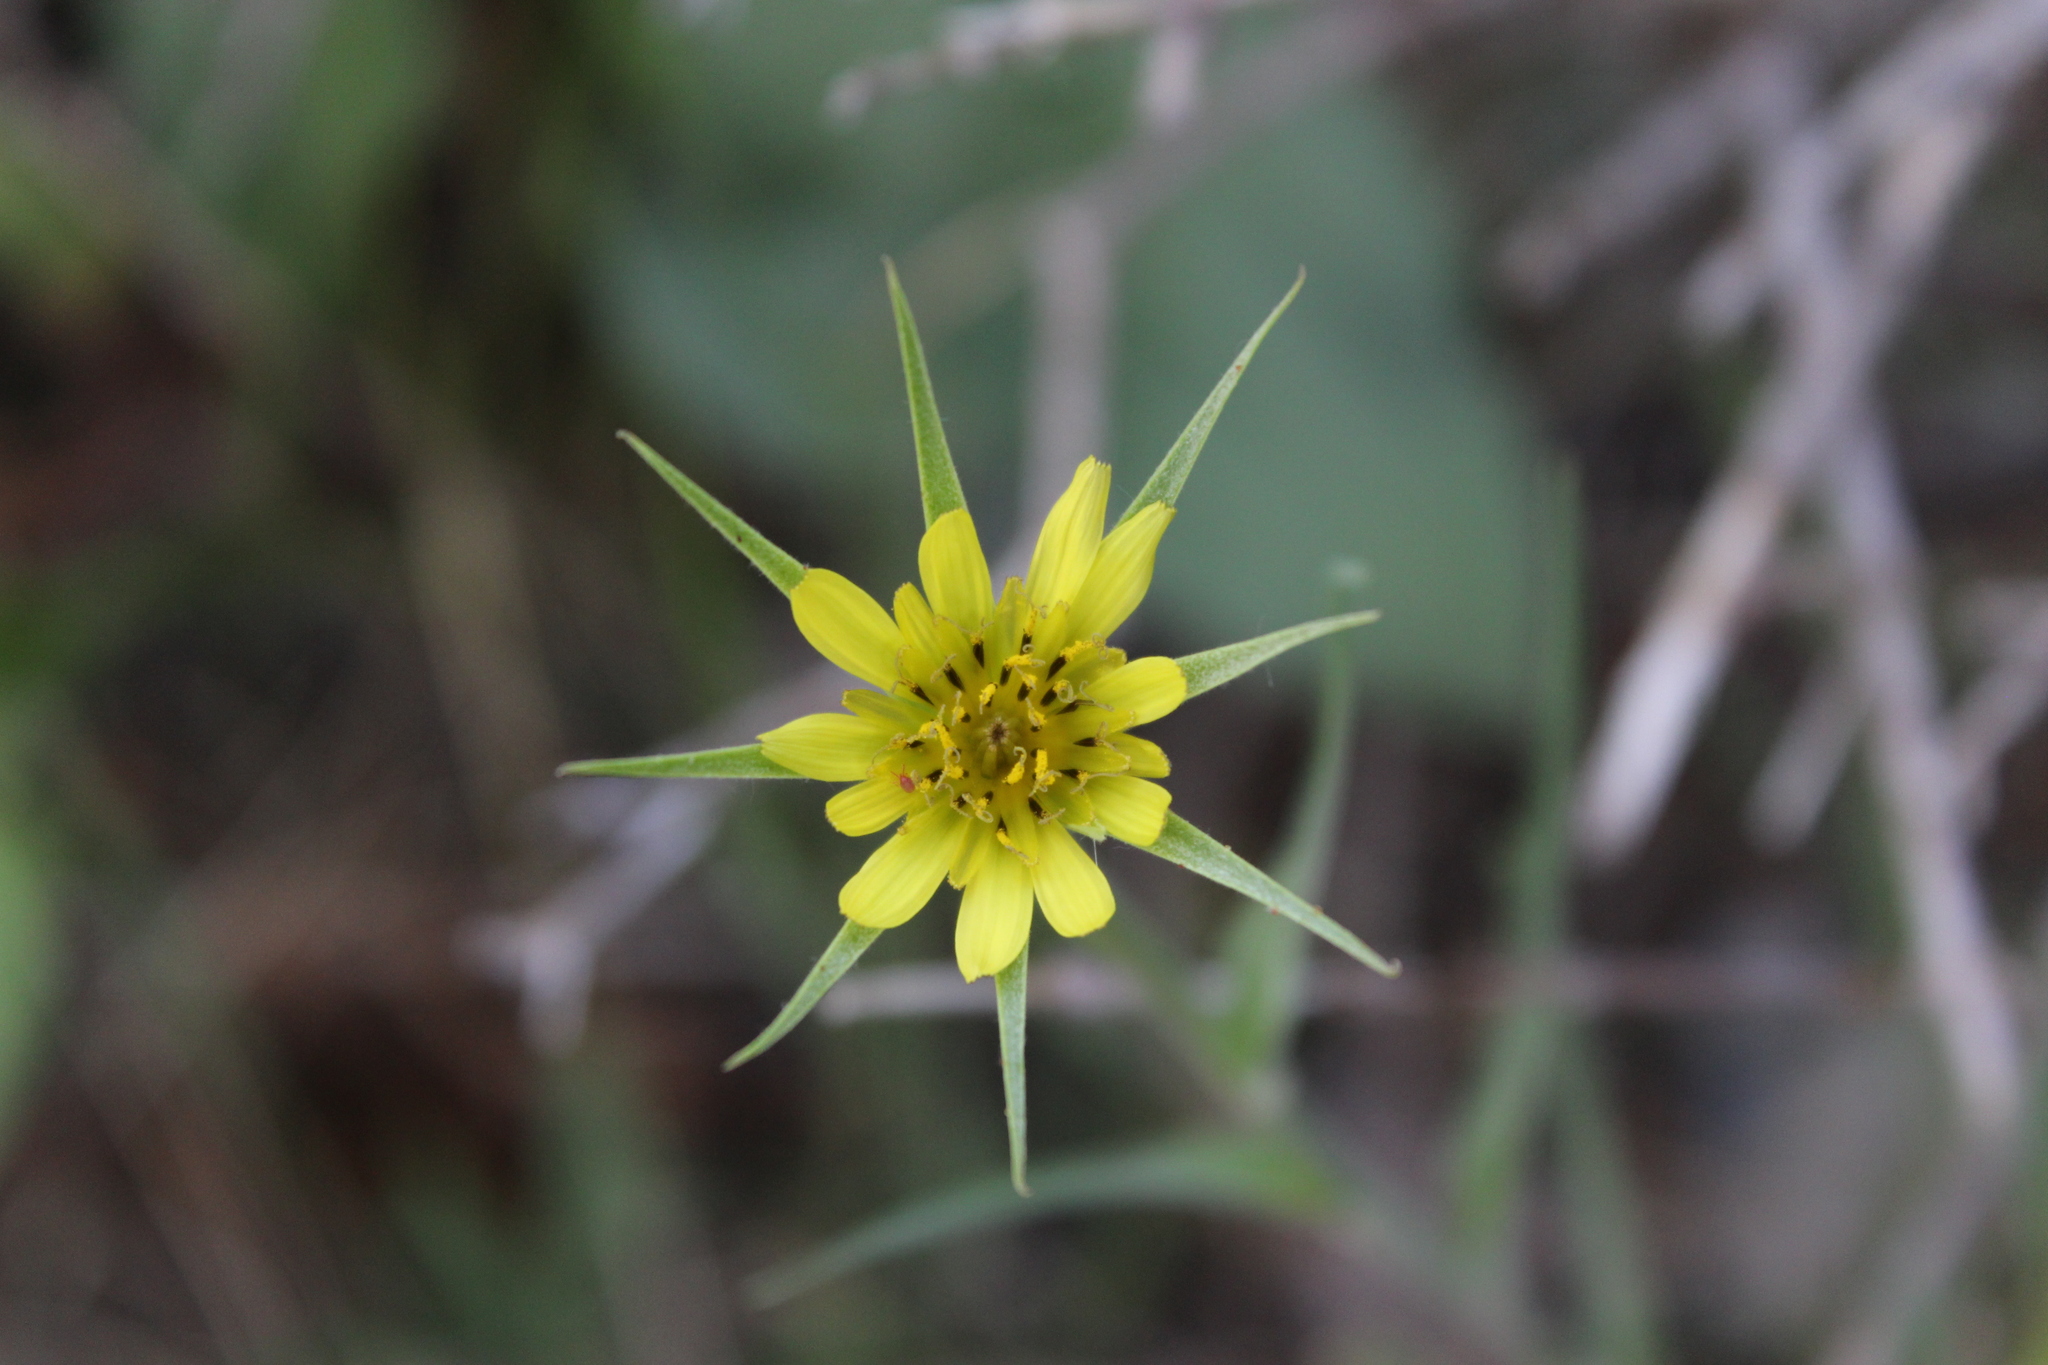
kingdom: Plantae
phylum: Tracheophyta
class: Magnoliopsida
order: Asterales
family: Asteraceae
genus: Tragopogon
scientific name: Tragopogon dubius
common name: Yellow salsify
